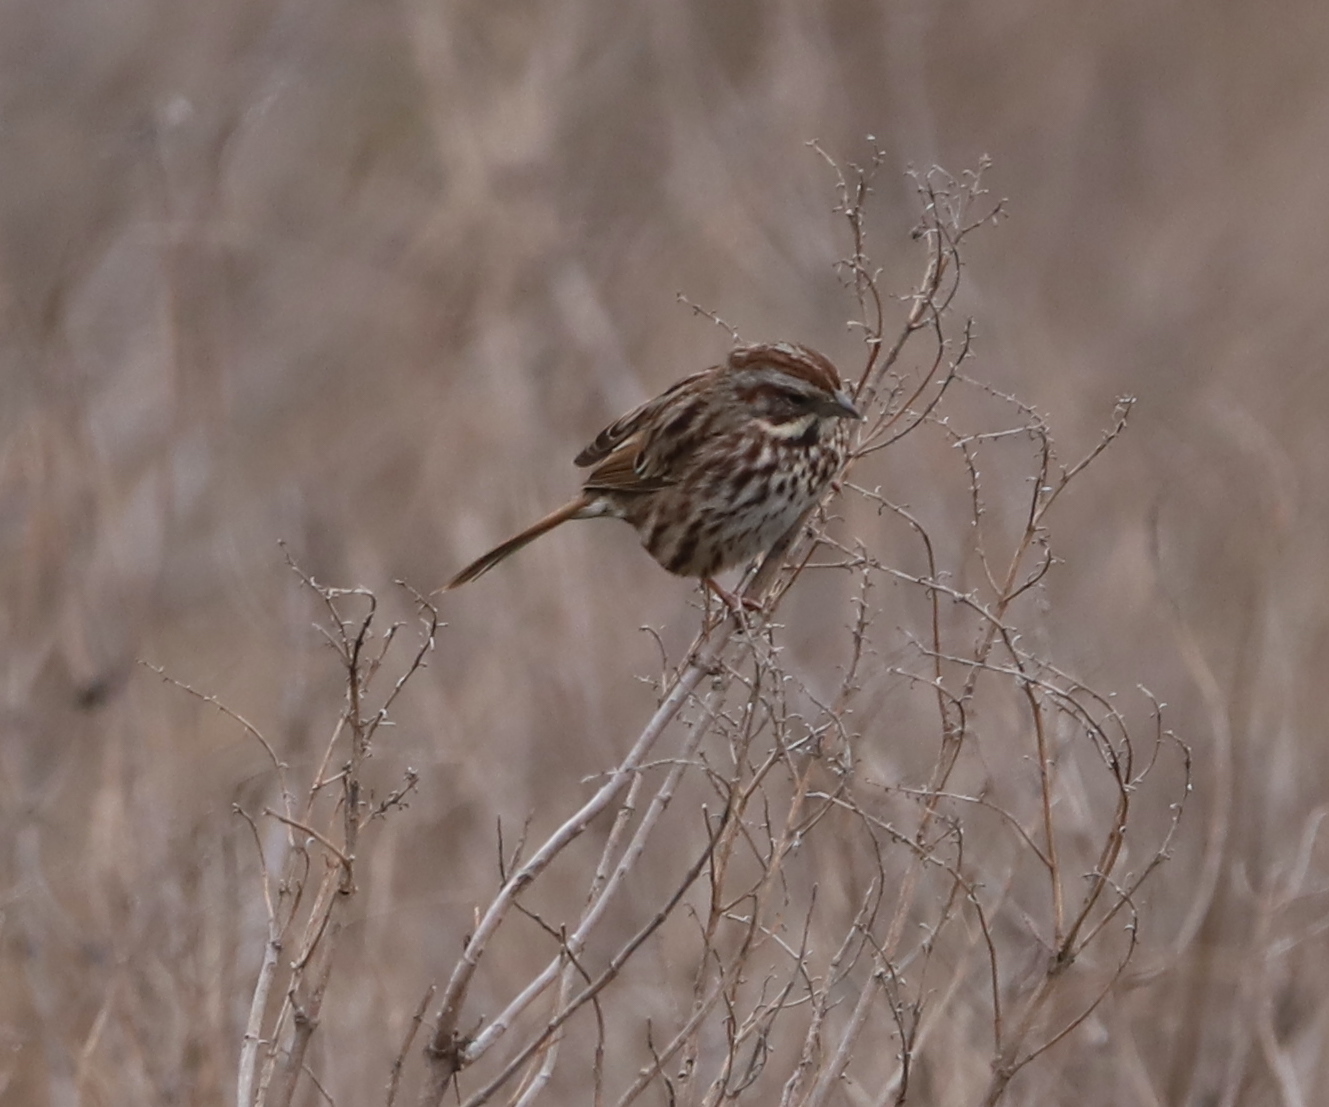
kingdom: Animalia
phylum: Chordata
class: Aves
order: Passeriformes
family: Passerellidae
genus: Melospiza
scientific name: Melospiza melodia
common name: Song sparrow
